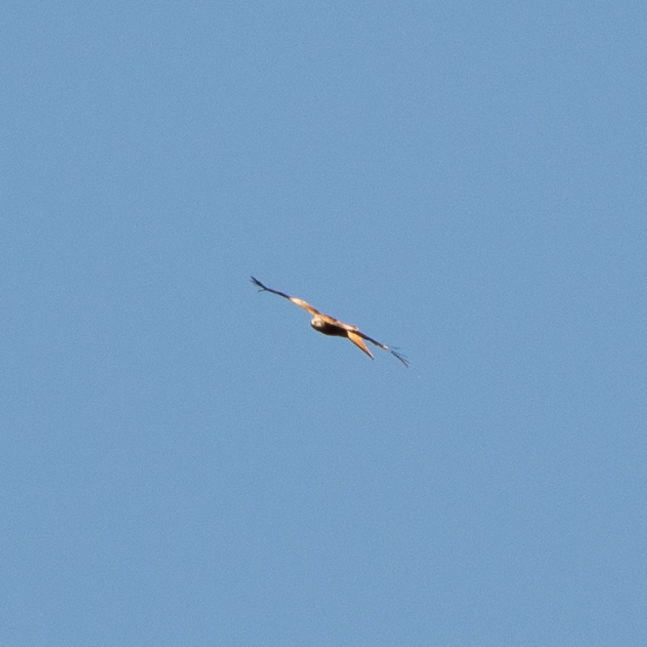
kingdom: Animalia
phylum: Chordata
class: Aves
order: Accipitriformes
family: Accipitridae
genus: Milvus
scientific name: Milvus milvus
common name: Red kite
